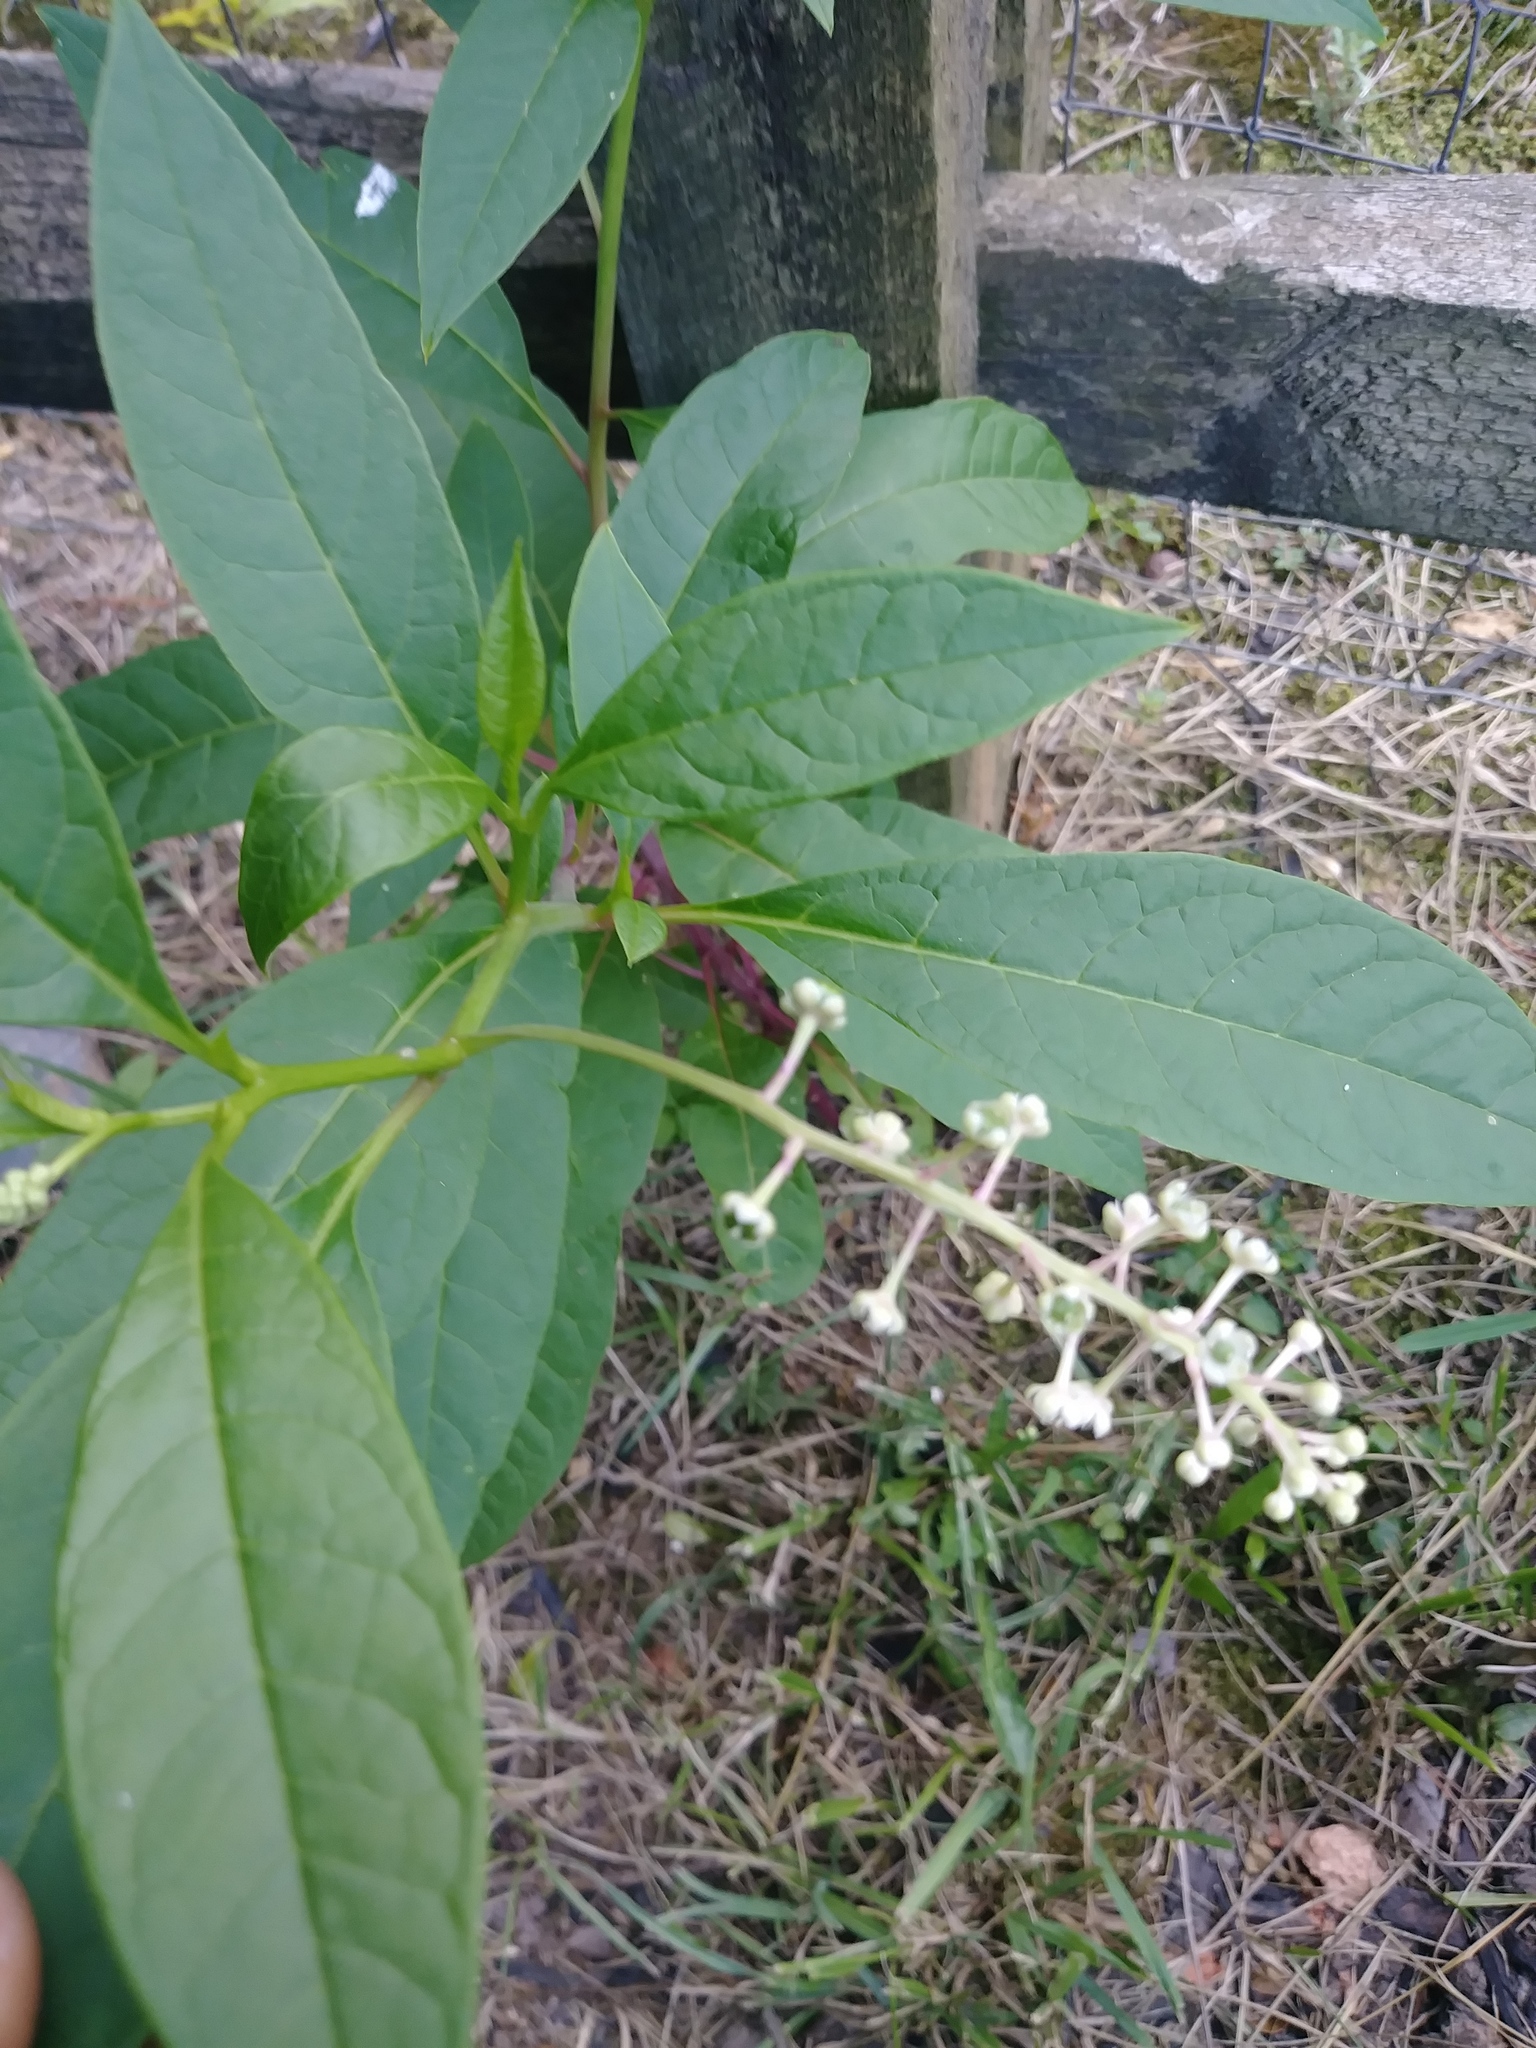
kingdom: Plantae
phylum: Tracheophyta
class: Magnoliopsida
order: Caryophyllales
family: Phytolaccaceae
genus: Phytolacca
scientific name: Phytolacca americana
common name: American pokeweed
